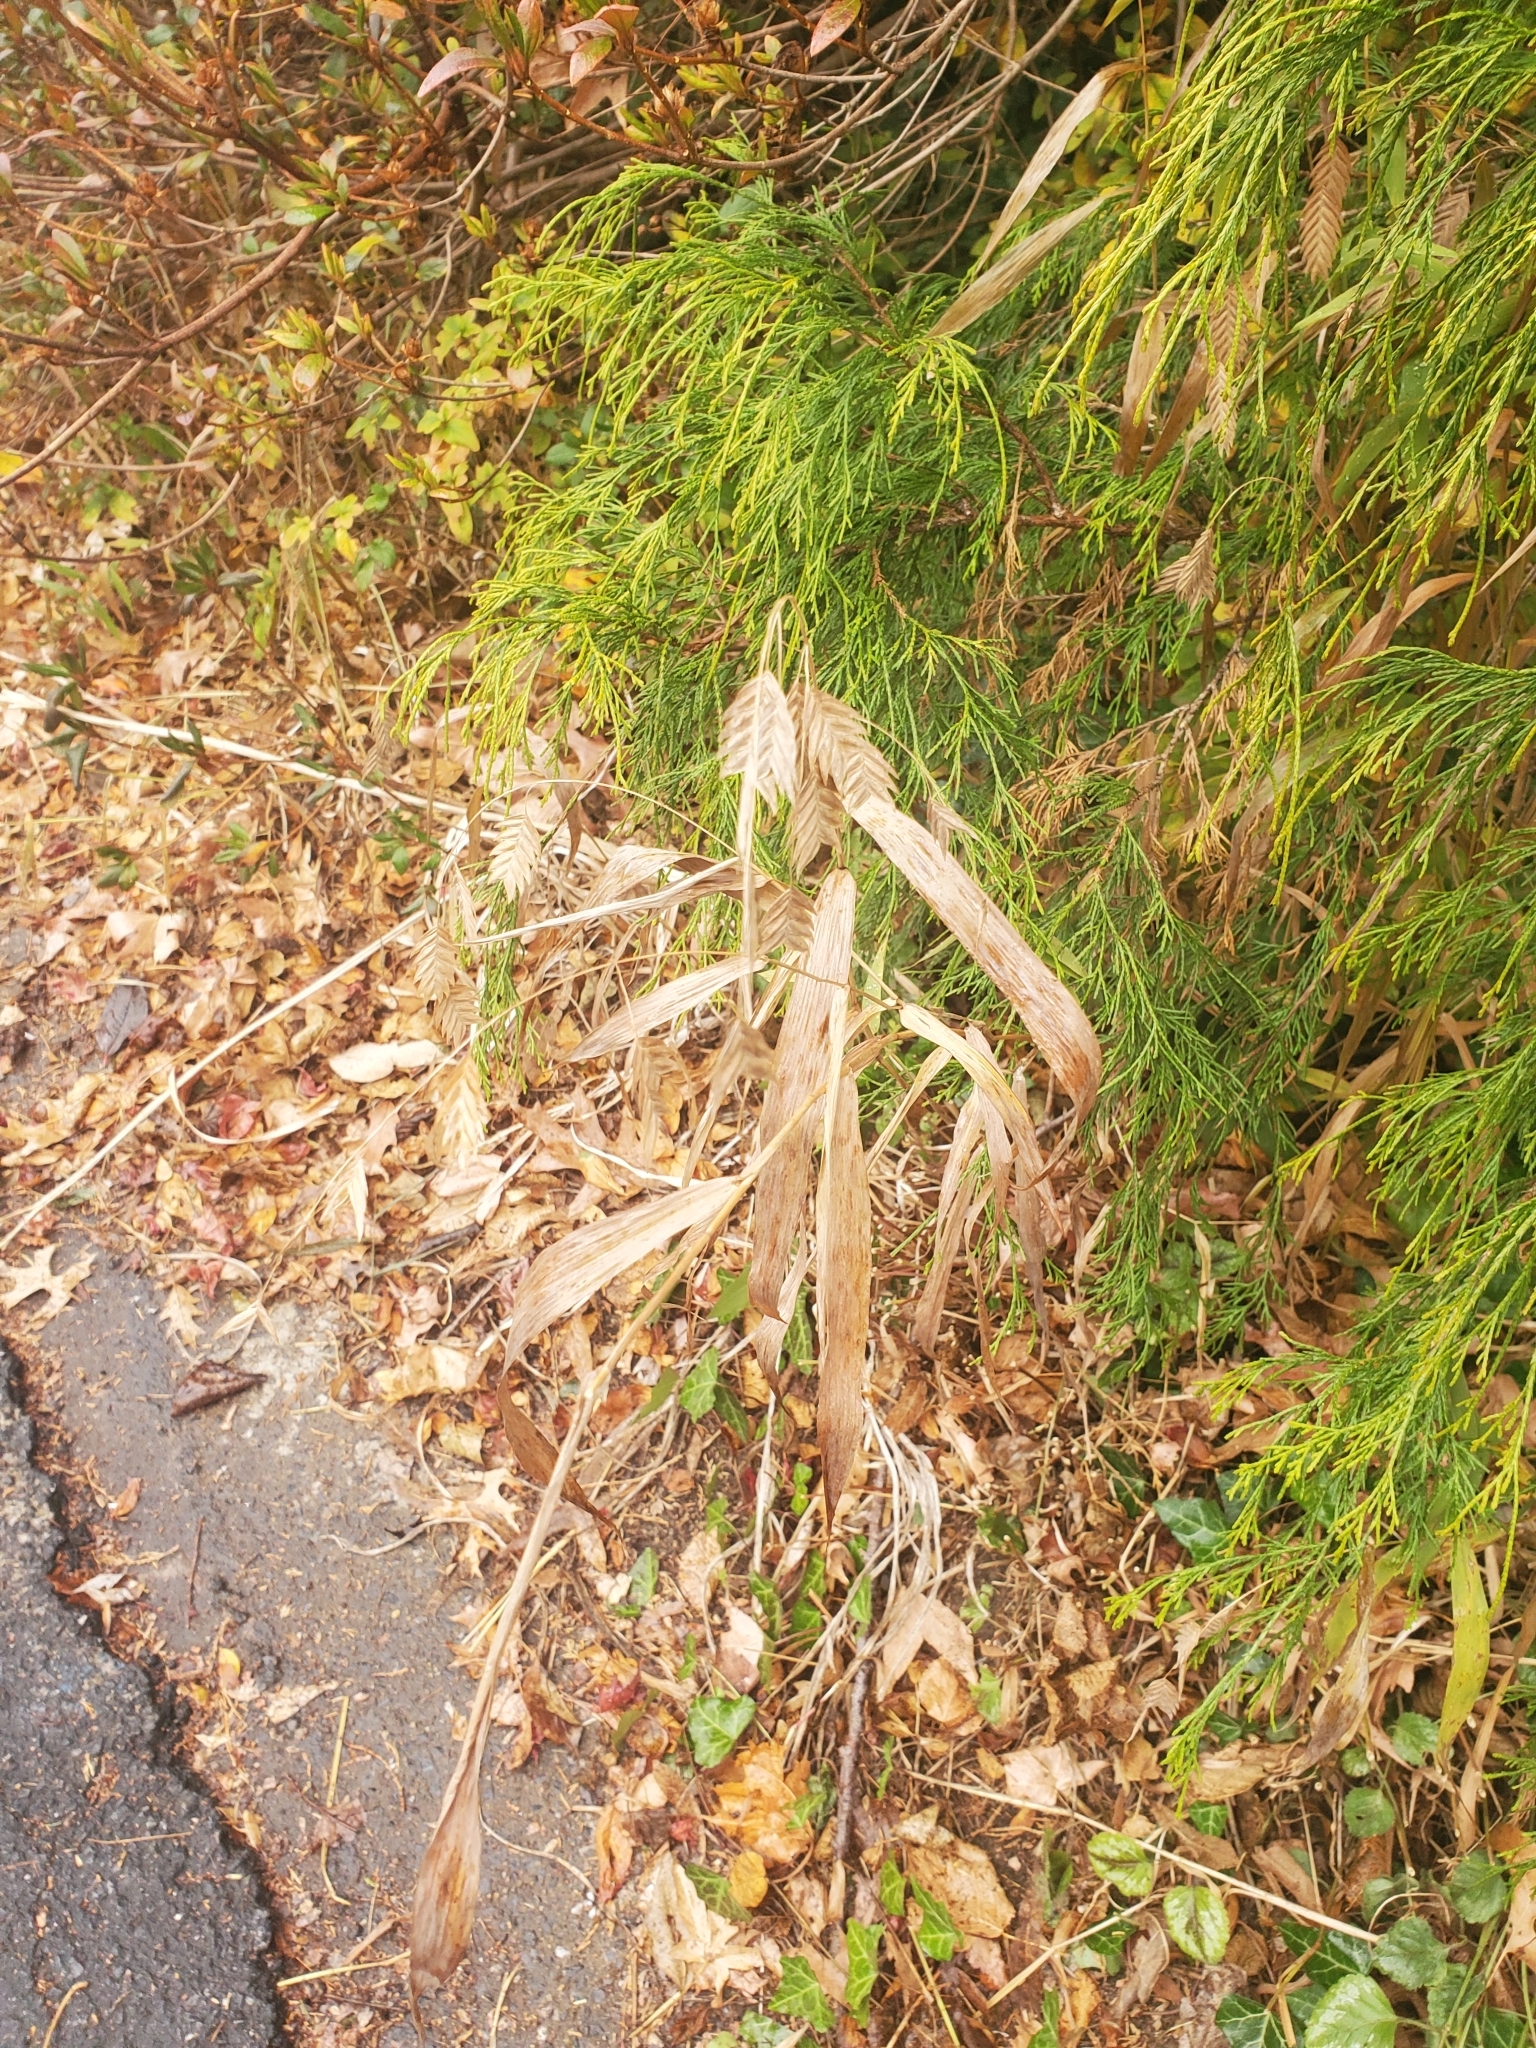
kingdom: Plantae
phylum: Tracheophyta
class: Liliopsida
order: Poales
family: Poaceae
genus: Chasmanthium
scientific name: Chasmanthium latifolium
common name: Broad-leaved chasmanthium
